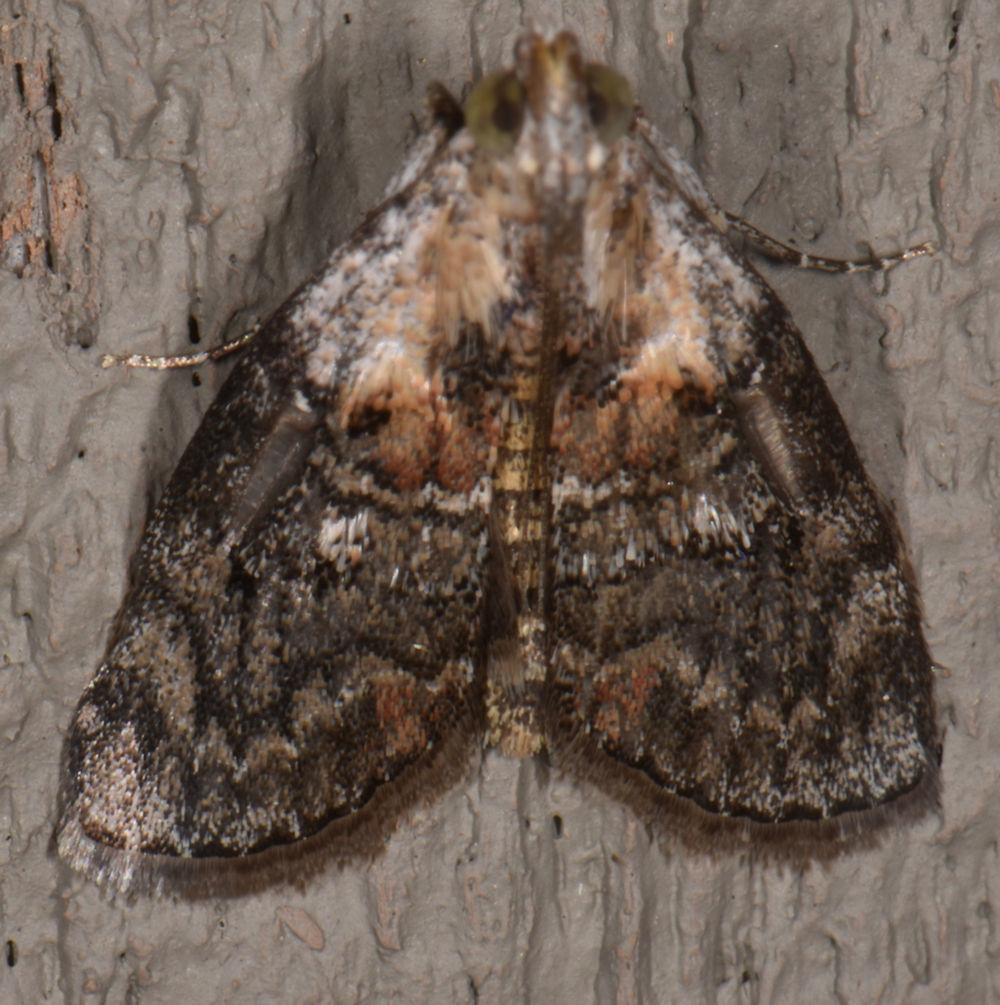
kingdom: Animalia
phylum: Arthropoda
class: Insecta
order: Lepidoptera
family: Pyralidae
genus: Pococera
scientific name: Pococera expandens
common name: Striped oak webworm moth
